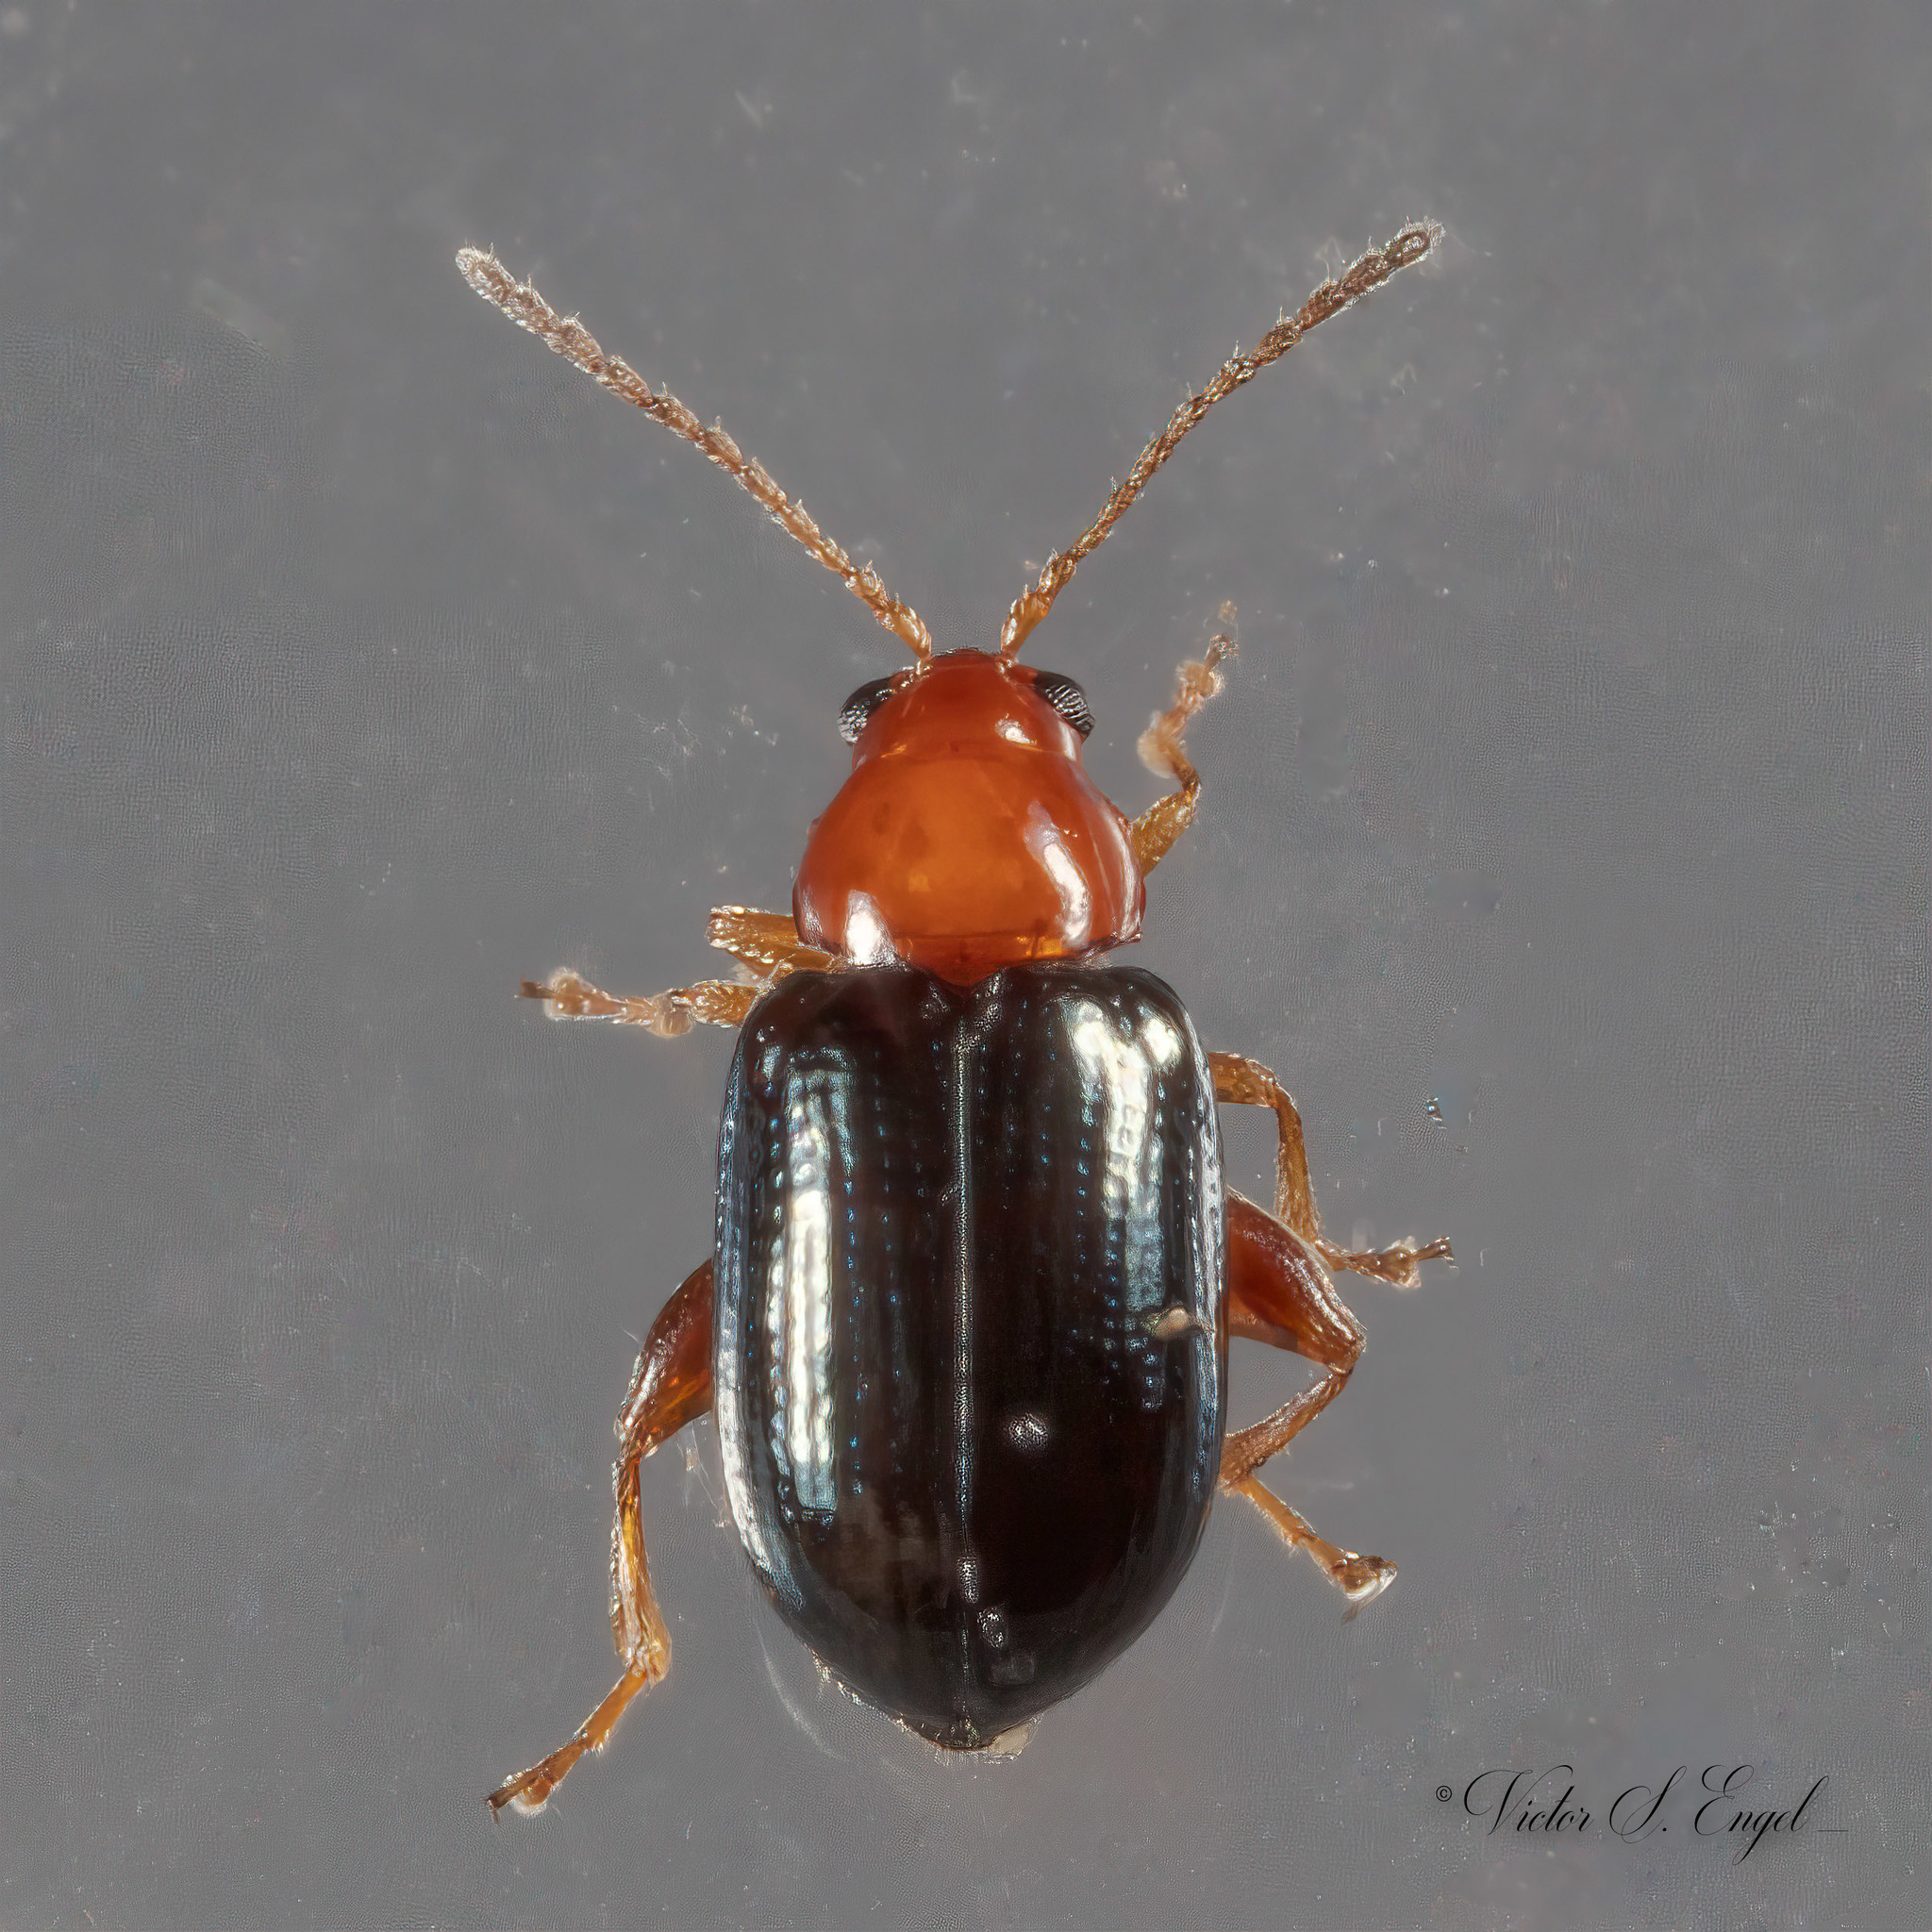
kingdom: Animalia
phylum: Arthropoda
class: Insecta
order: Coleoptera
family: Chrysomelidae
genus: Glyptina
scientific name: Glyptina cyanipennis
